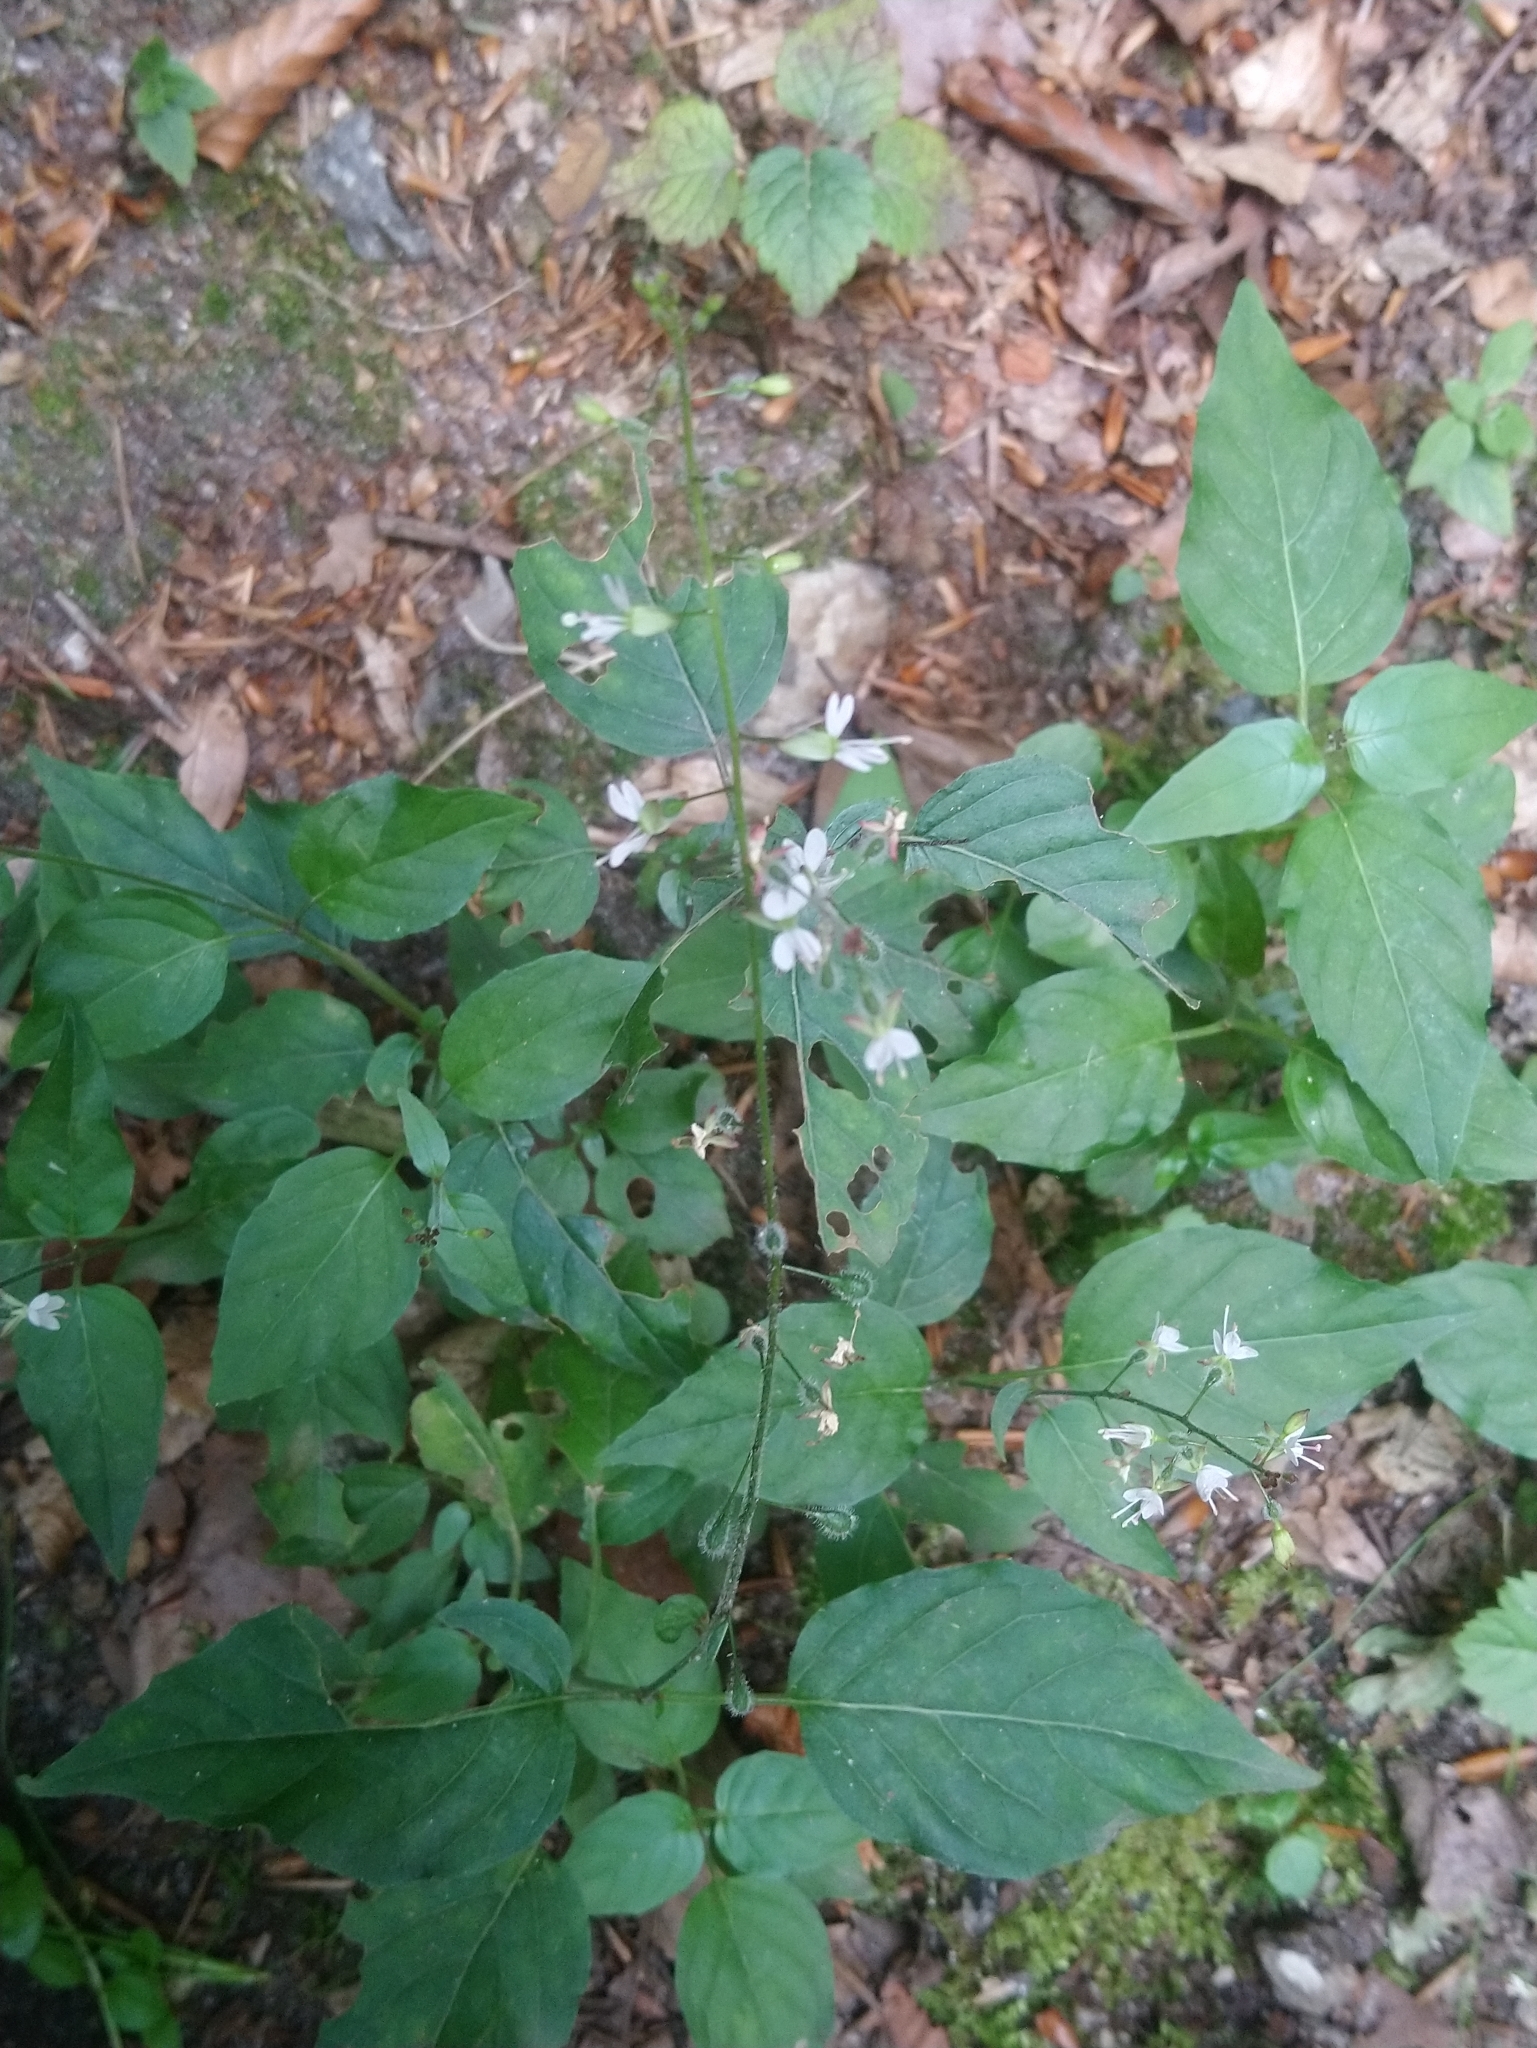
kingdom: Plantae
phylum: Tracheophyta
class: Magnoliopsida
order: Myrtales
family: Onagraceae
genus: Circaea
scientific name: Circaea lutetiana
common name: Enchanter's-nightshade
